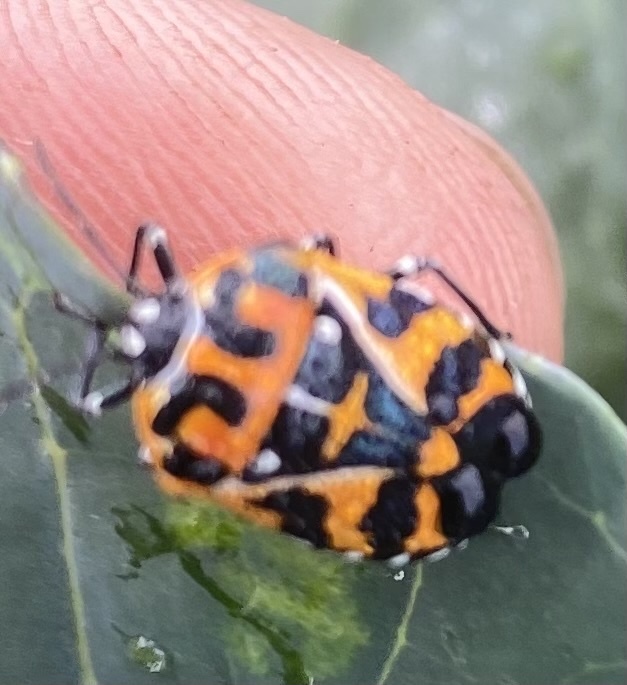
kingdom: Animalia
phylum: Arthropoda
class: Insecta
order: Hemiptera
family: Pentatomidae
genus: Murgantia
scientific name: Murgantia histrionica
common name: Harlequin bug
